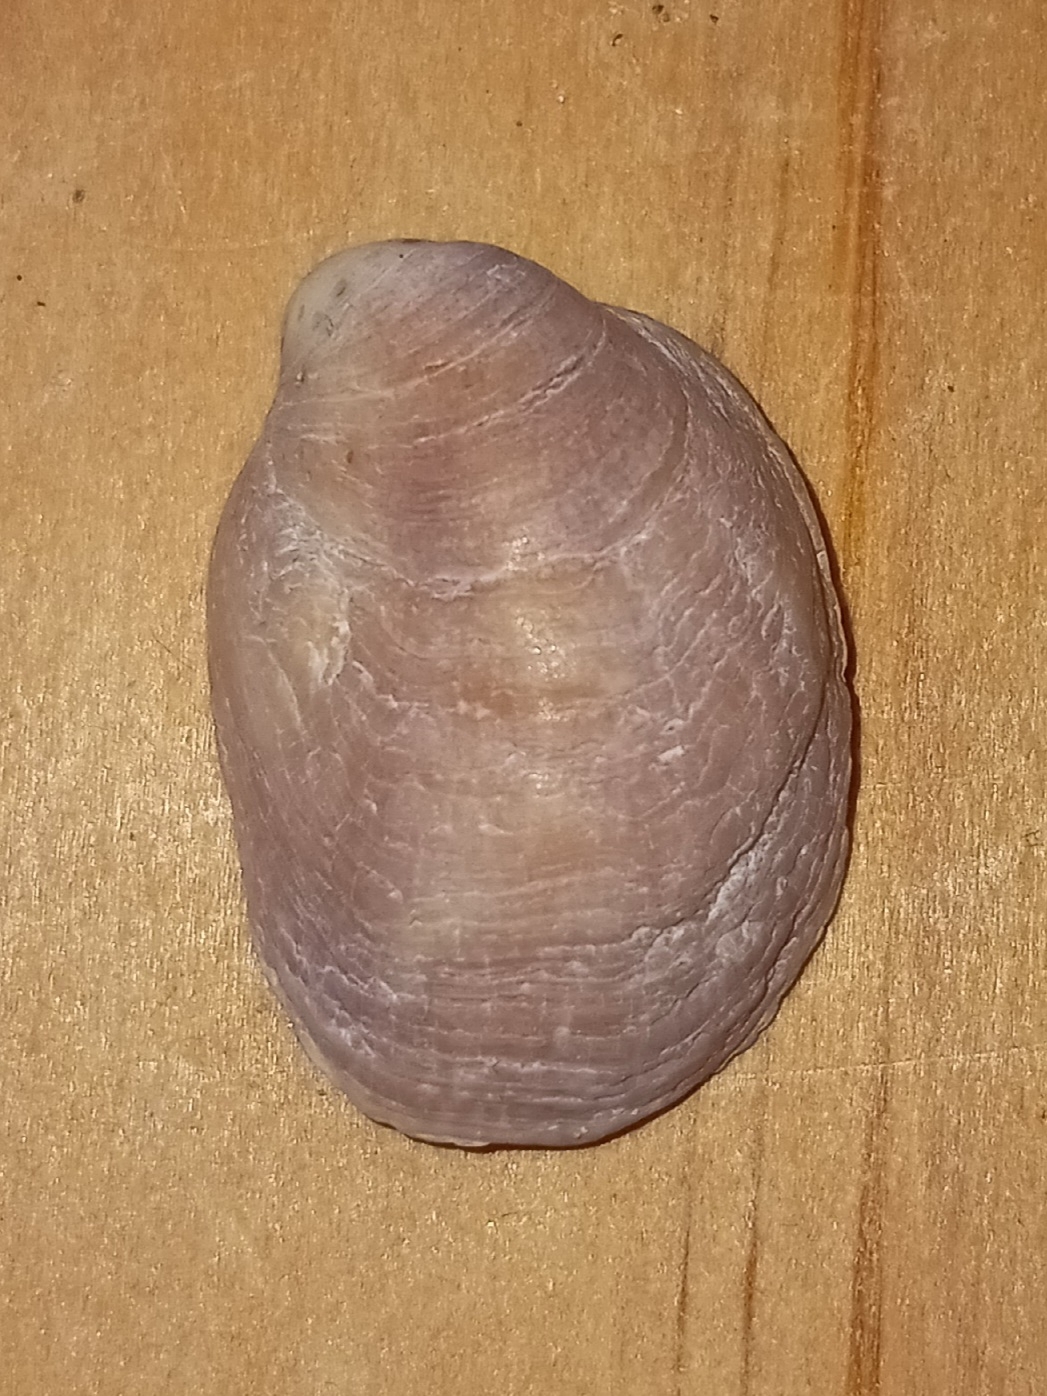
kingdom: Animalia
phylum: Mollusca
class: Gastropoda
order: Littorinimorpha
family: Calyptraeidae
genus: Crepidula
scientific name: Crepidula fornicata
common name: Slipper limpet
